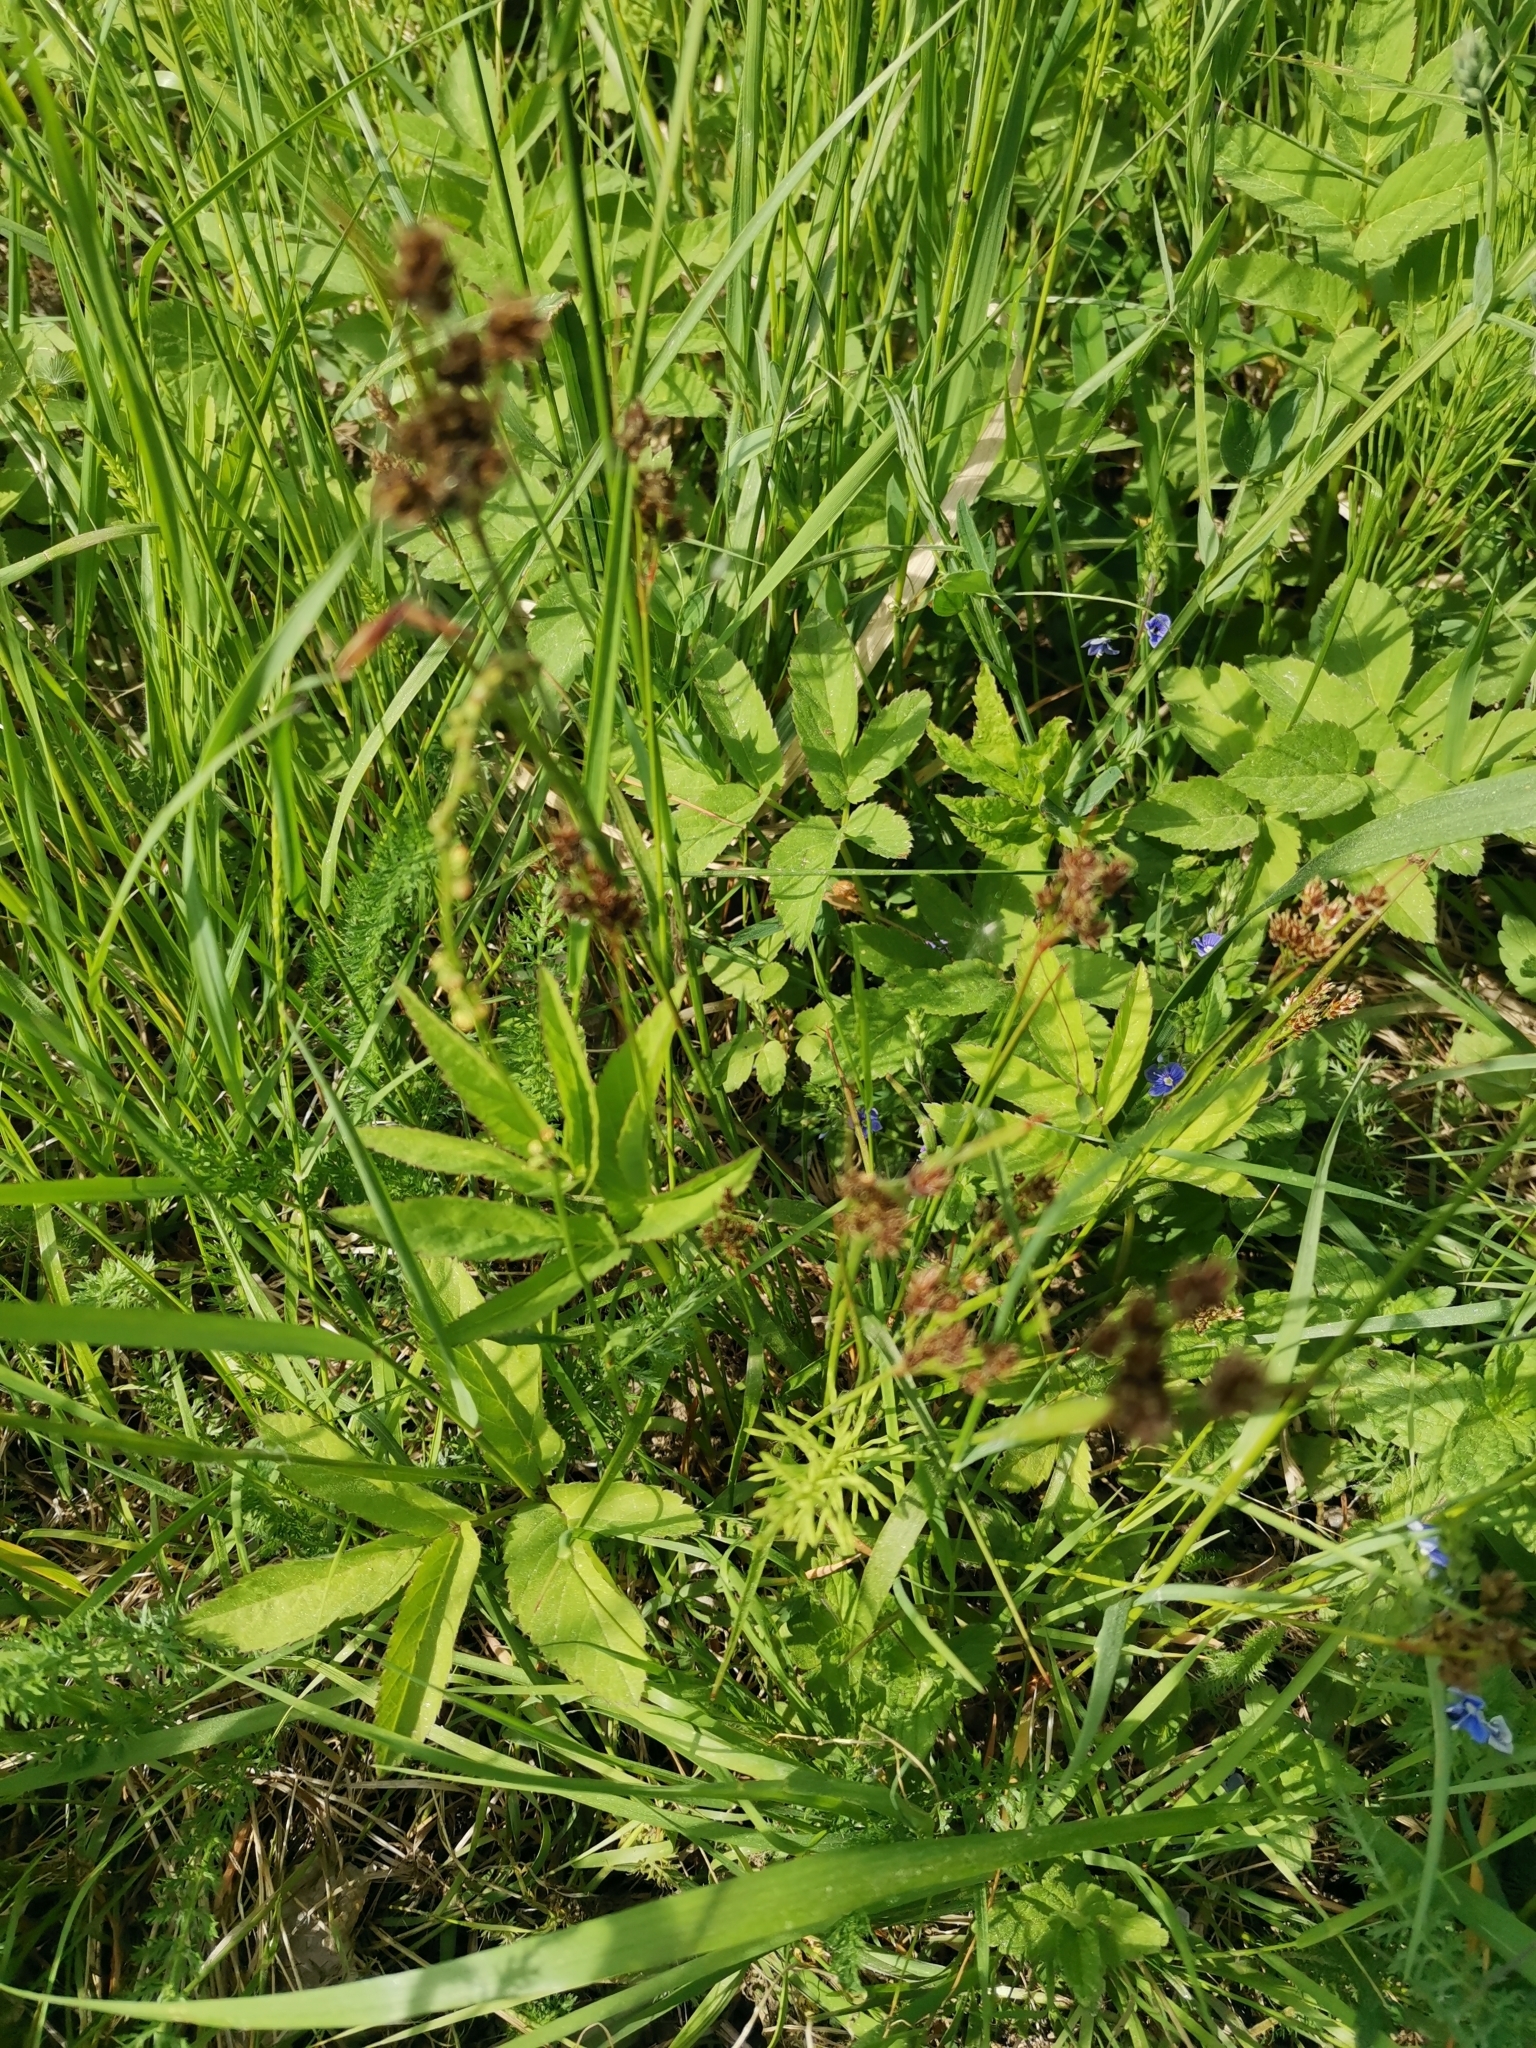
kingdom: Plantae
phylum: Tracheophyta
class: Liliopsida
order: Poales
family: Juncaceae
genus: Luzula
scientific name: Luzula multiflora
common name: Heath wood-rush
